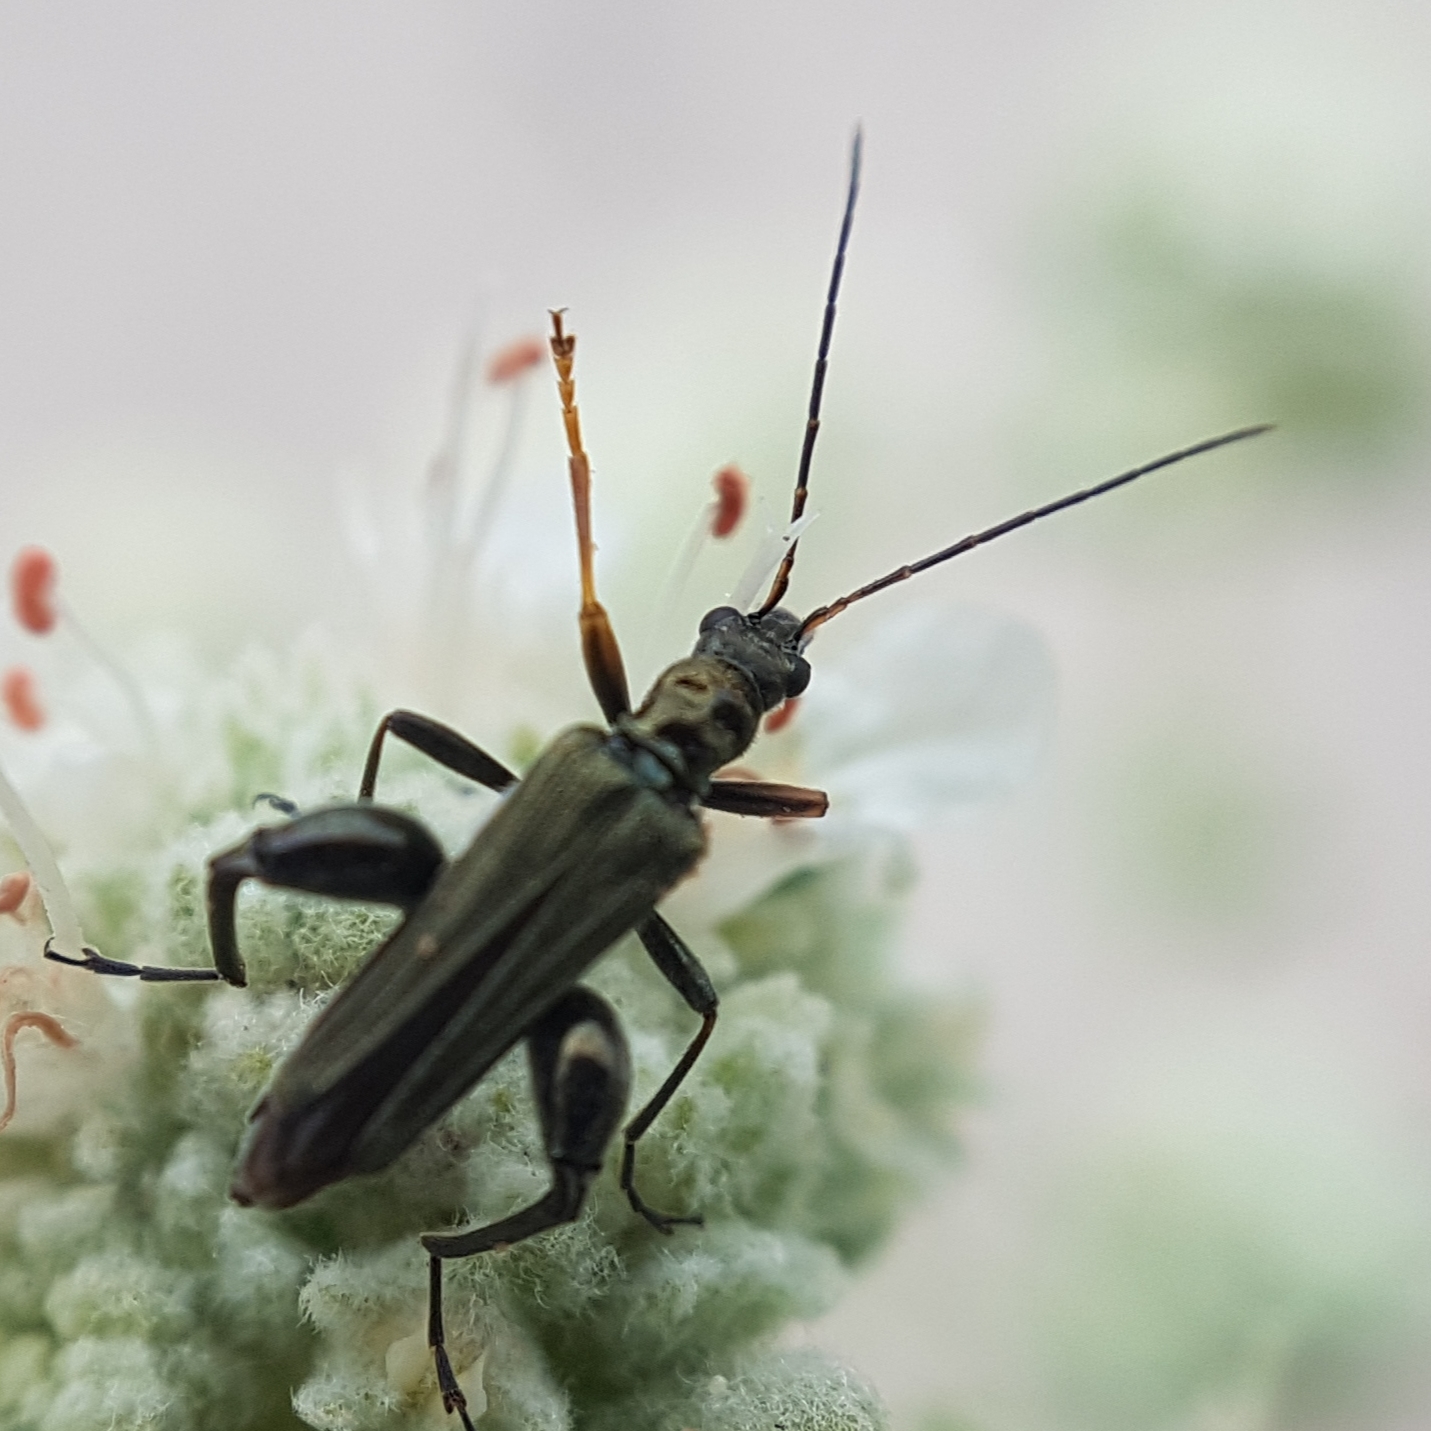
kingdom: Animalia
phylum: Arthropoda
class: Insecta
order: Coleoptera
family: Oedemeridae
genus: Oedemera
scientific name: Oedemera flavipes
